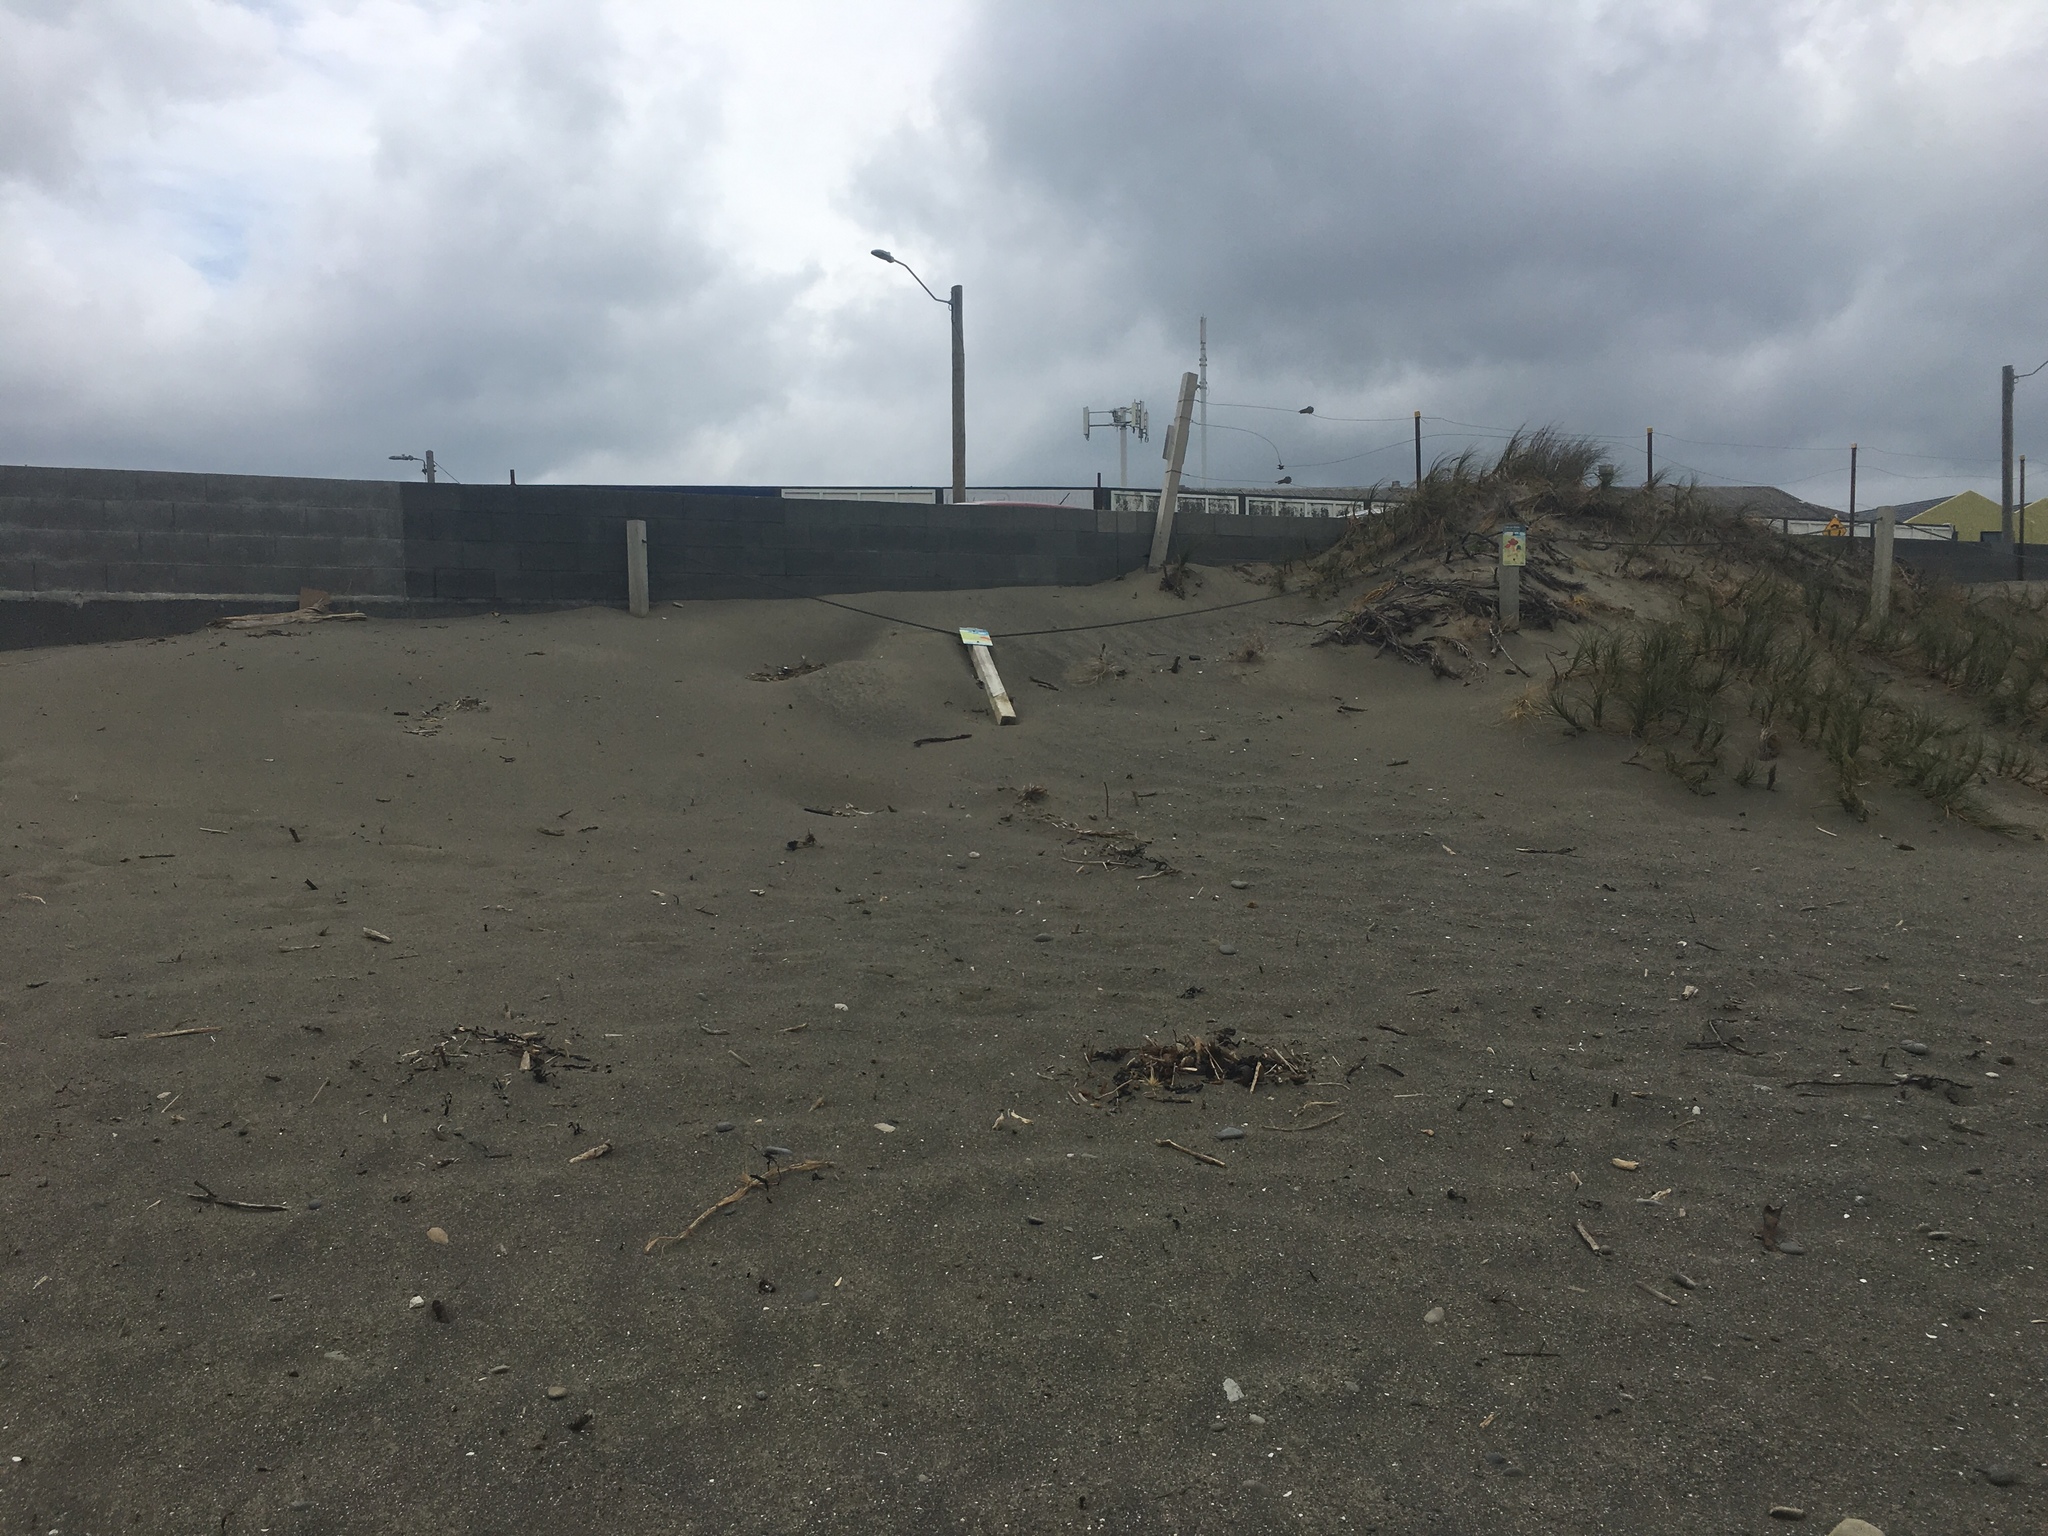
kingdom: Plantae
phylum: Tracheophyta
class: Liliopsida
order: Poales
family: Cyperaceae
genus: Ficinia
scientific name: Ficinia spiralis
